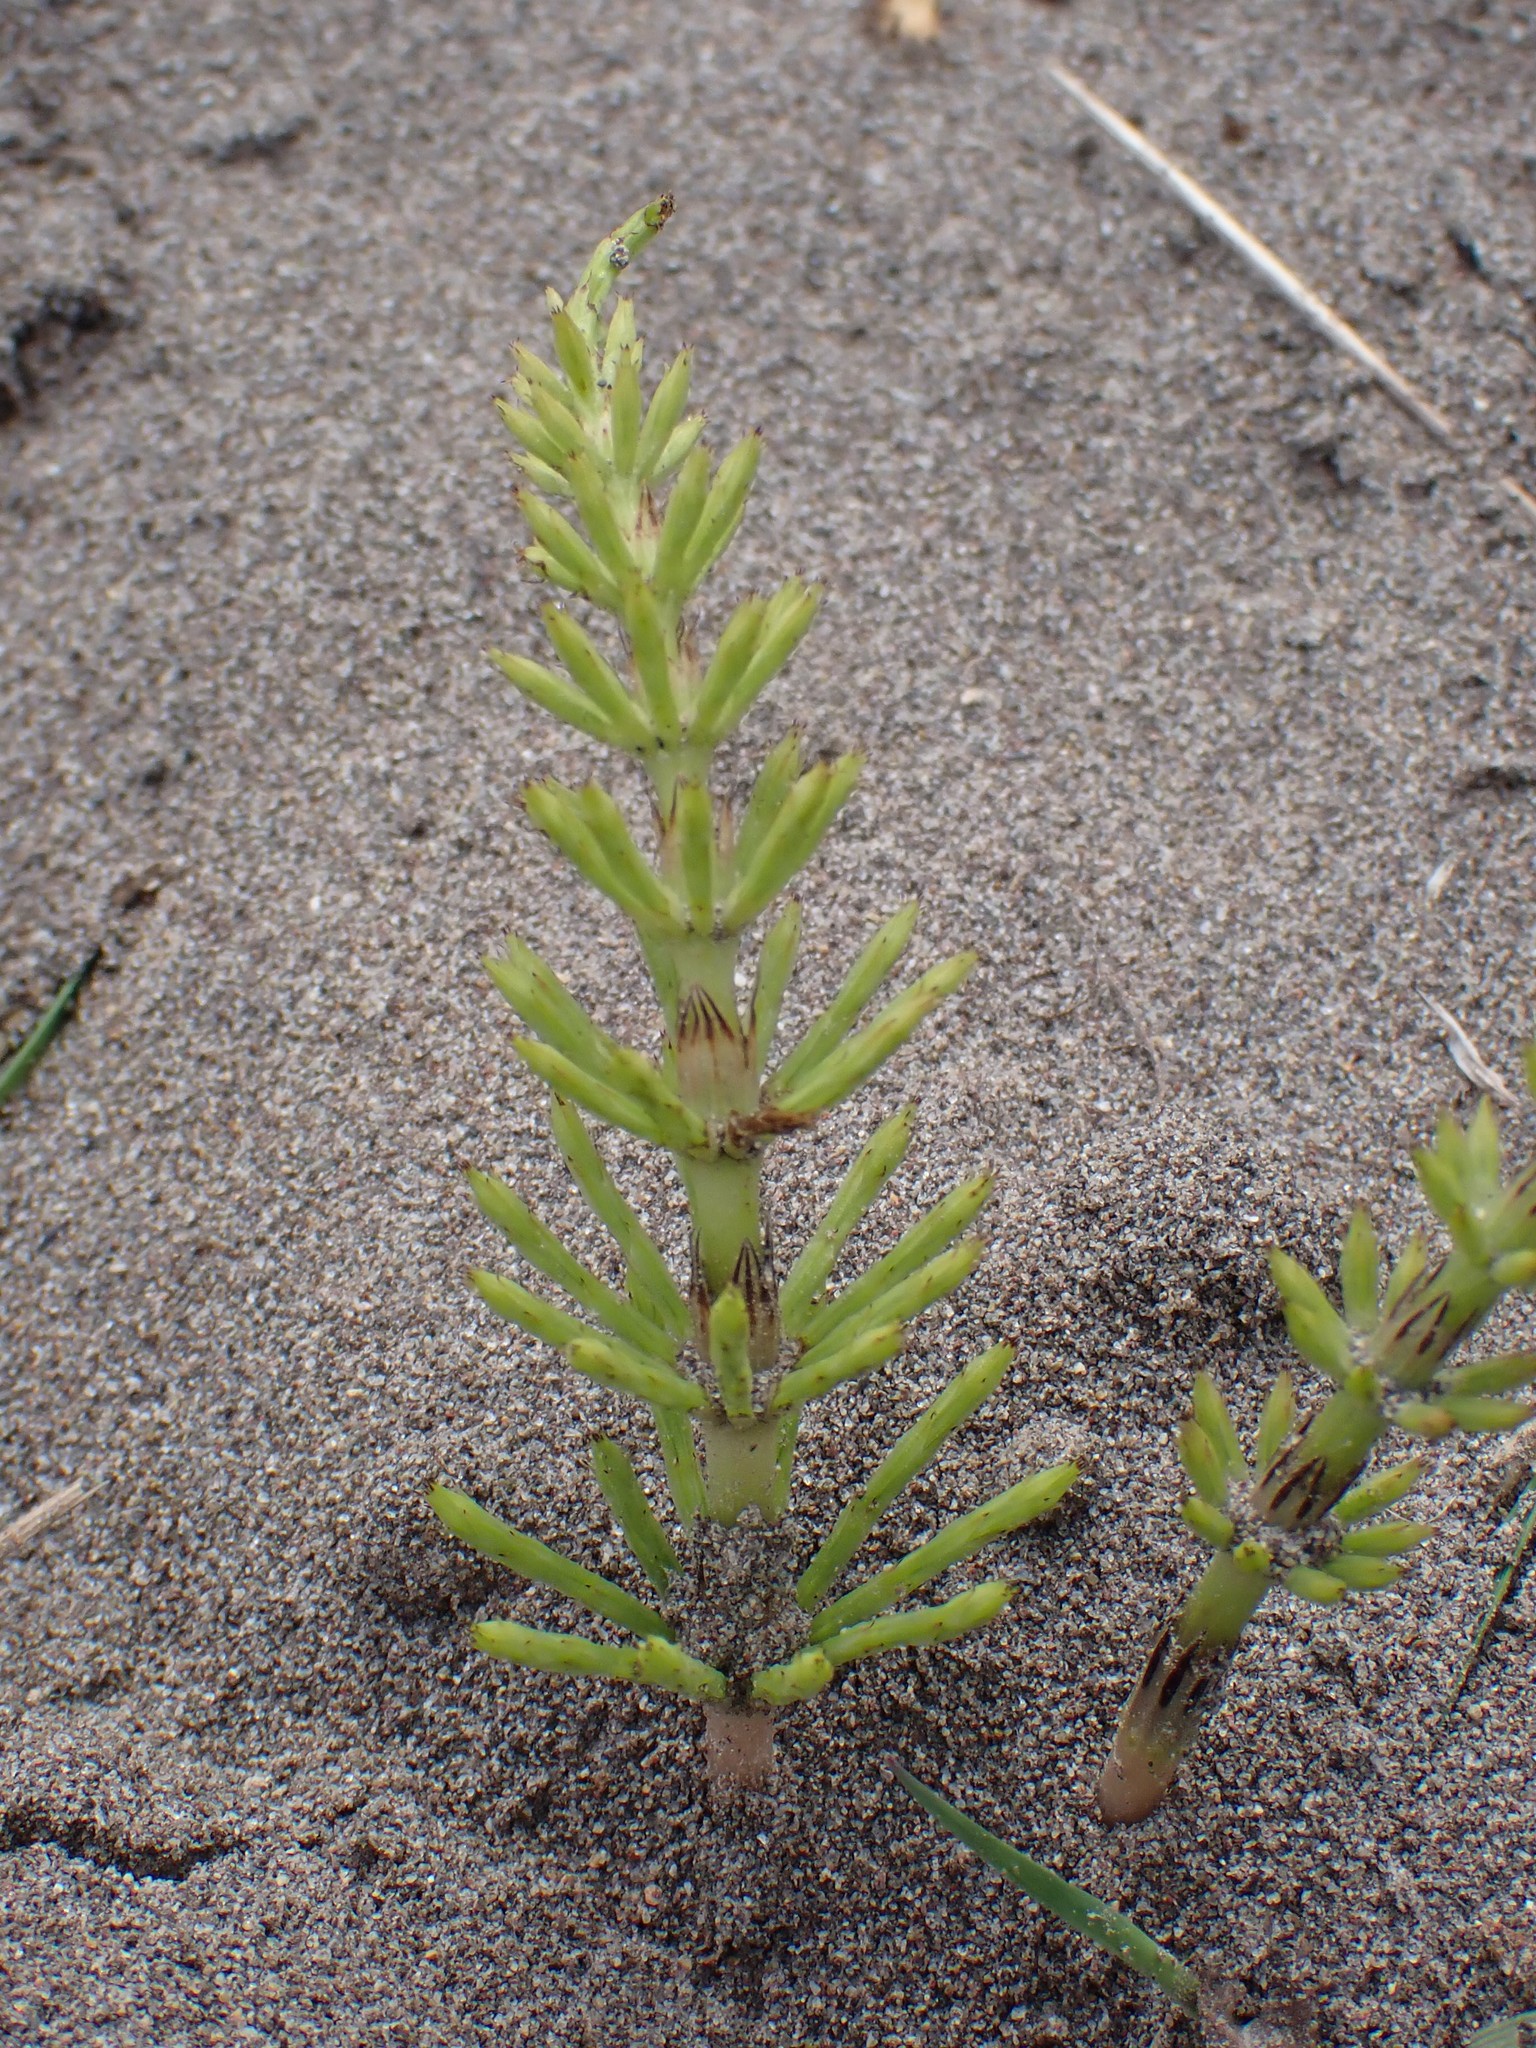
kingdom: Plantae
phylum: Tracheophyta
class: Polypodiopsida
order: Equisetales
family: Equisetaceae
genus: Equisetum
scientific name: Equisetum arvense
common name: Field horsetail
